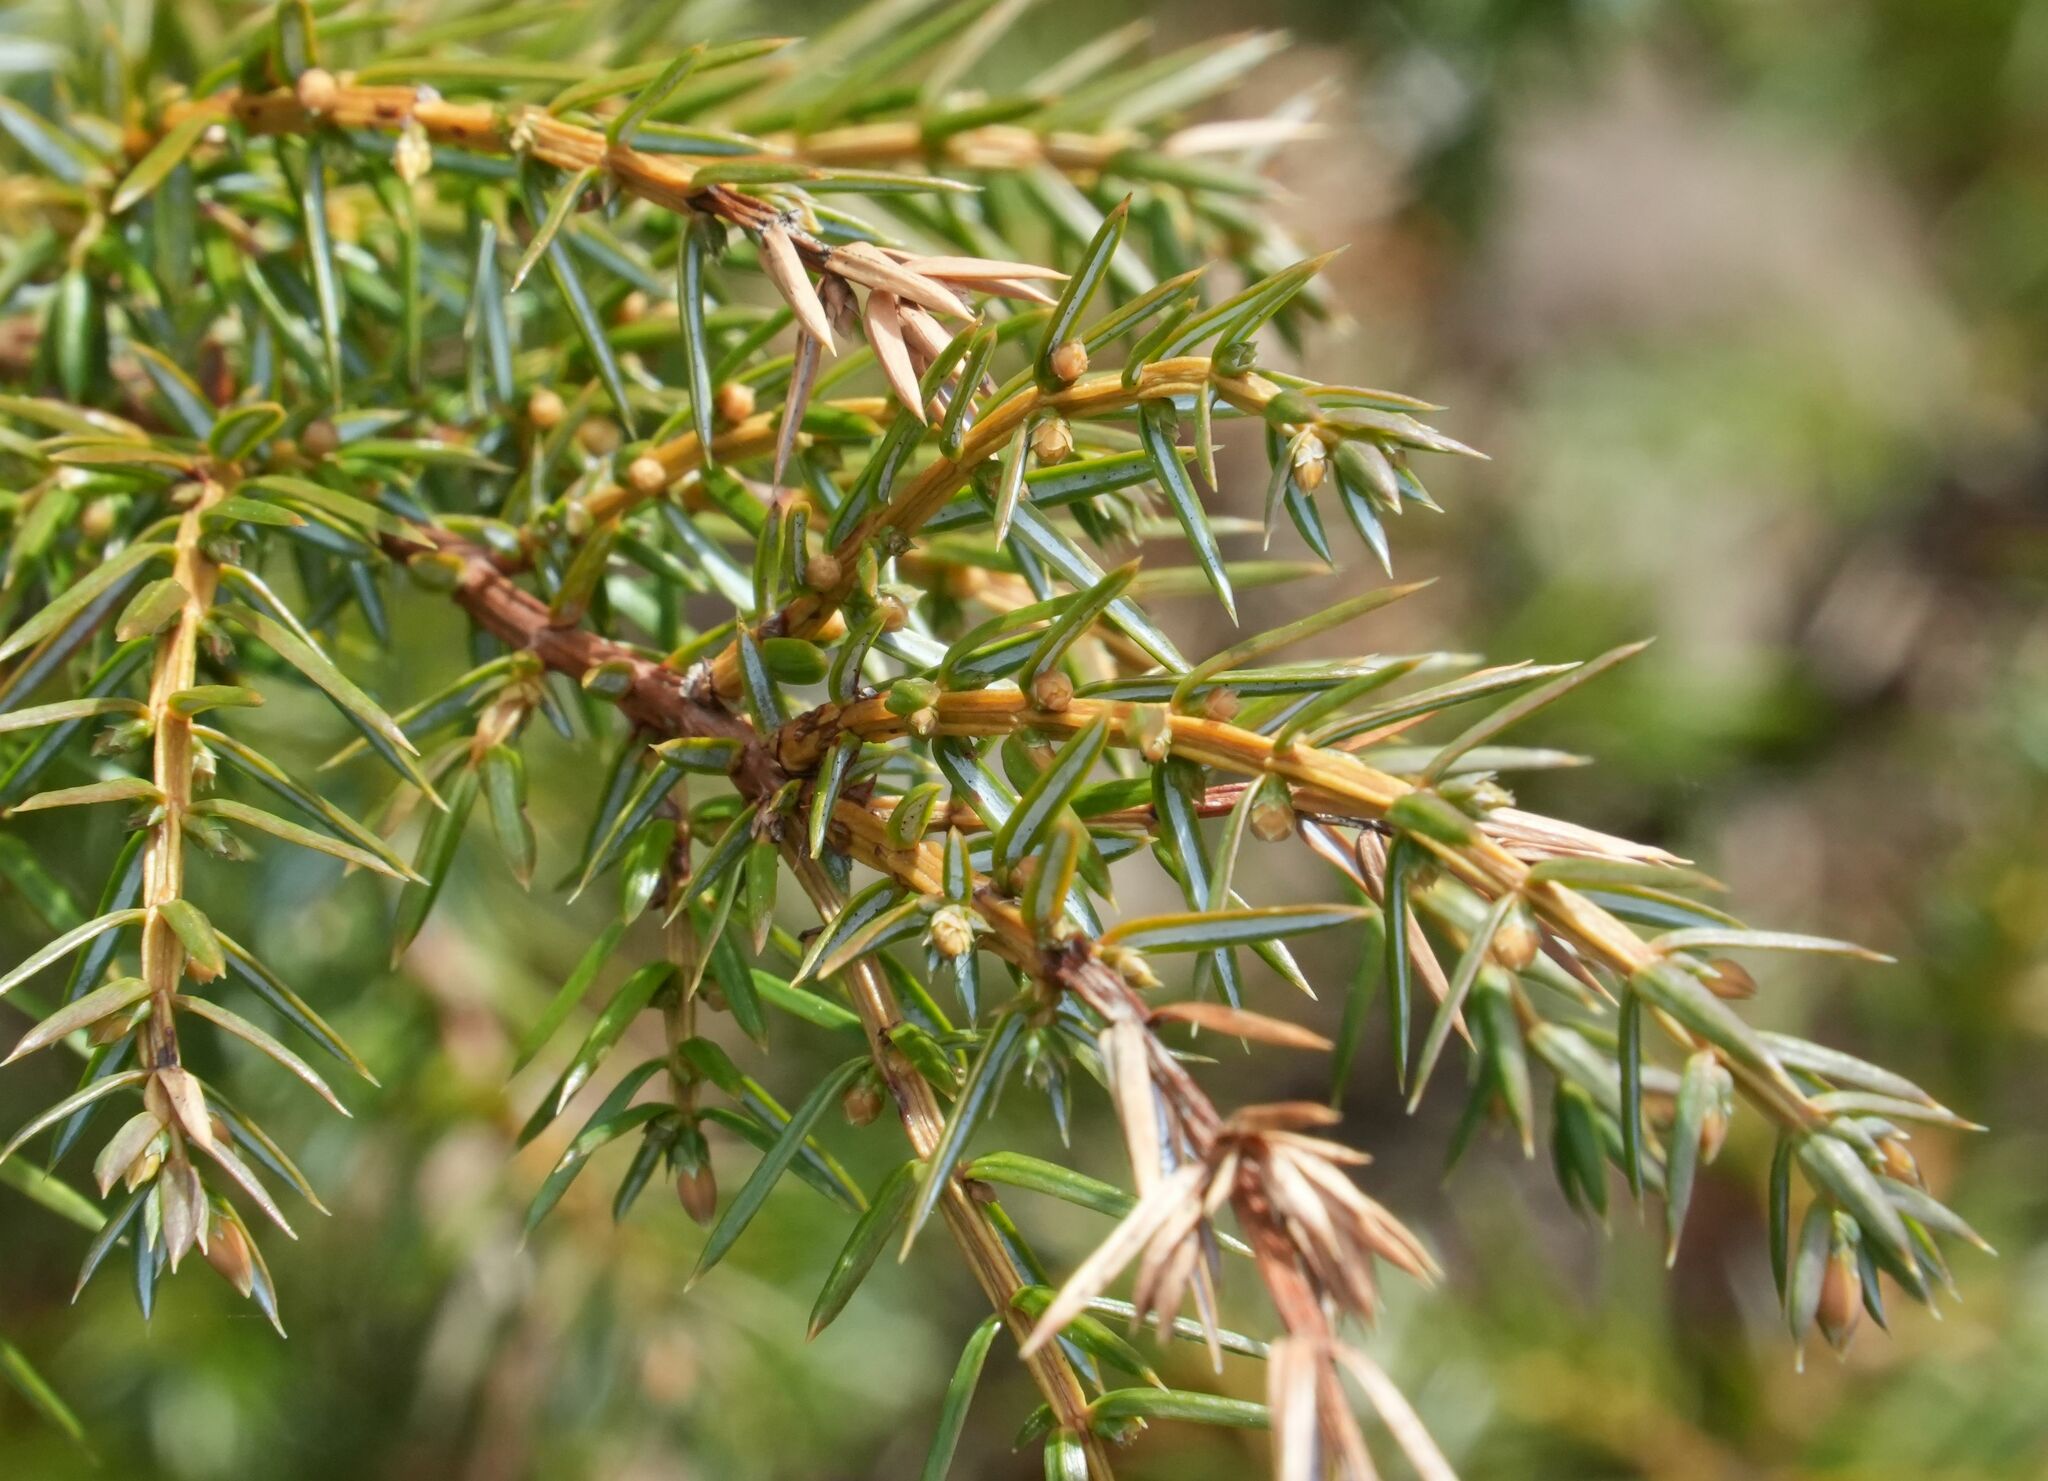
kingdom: Plantae
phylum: Tracheophyta
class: Pinopsida
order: Pinales
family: Cupressaceae
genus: Juniperus
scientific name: Juniperus communis
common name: Common juniper
